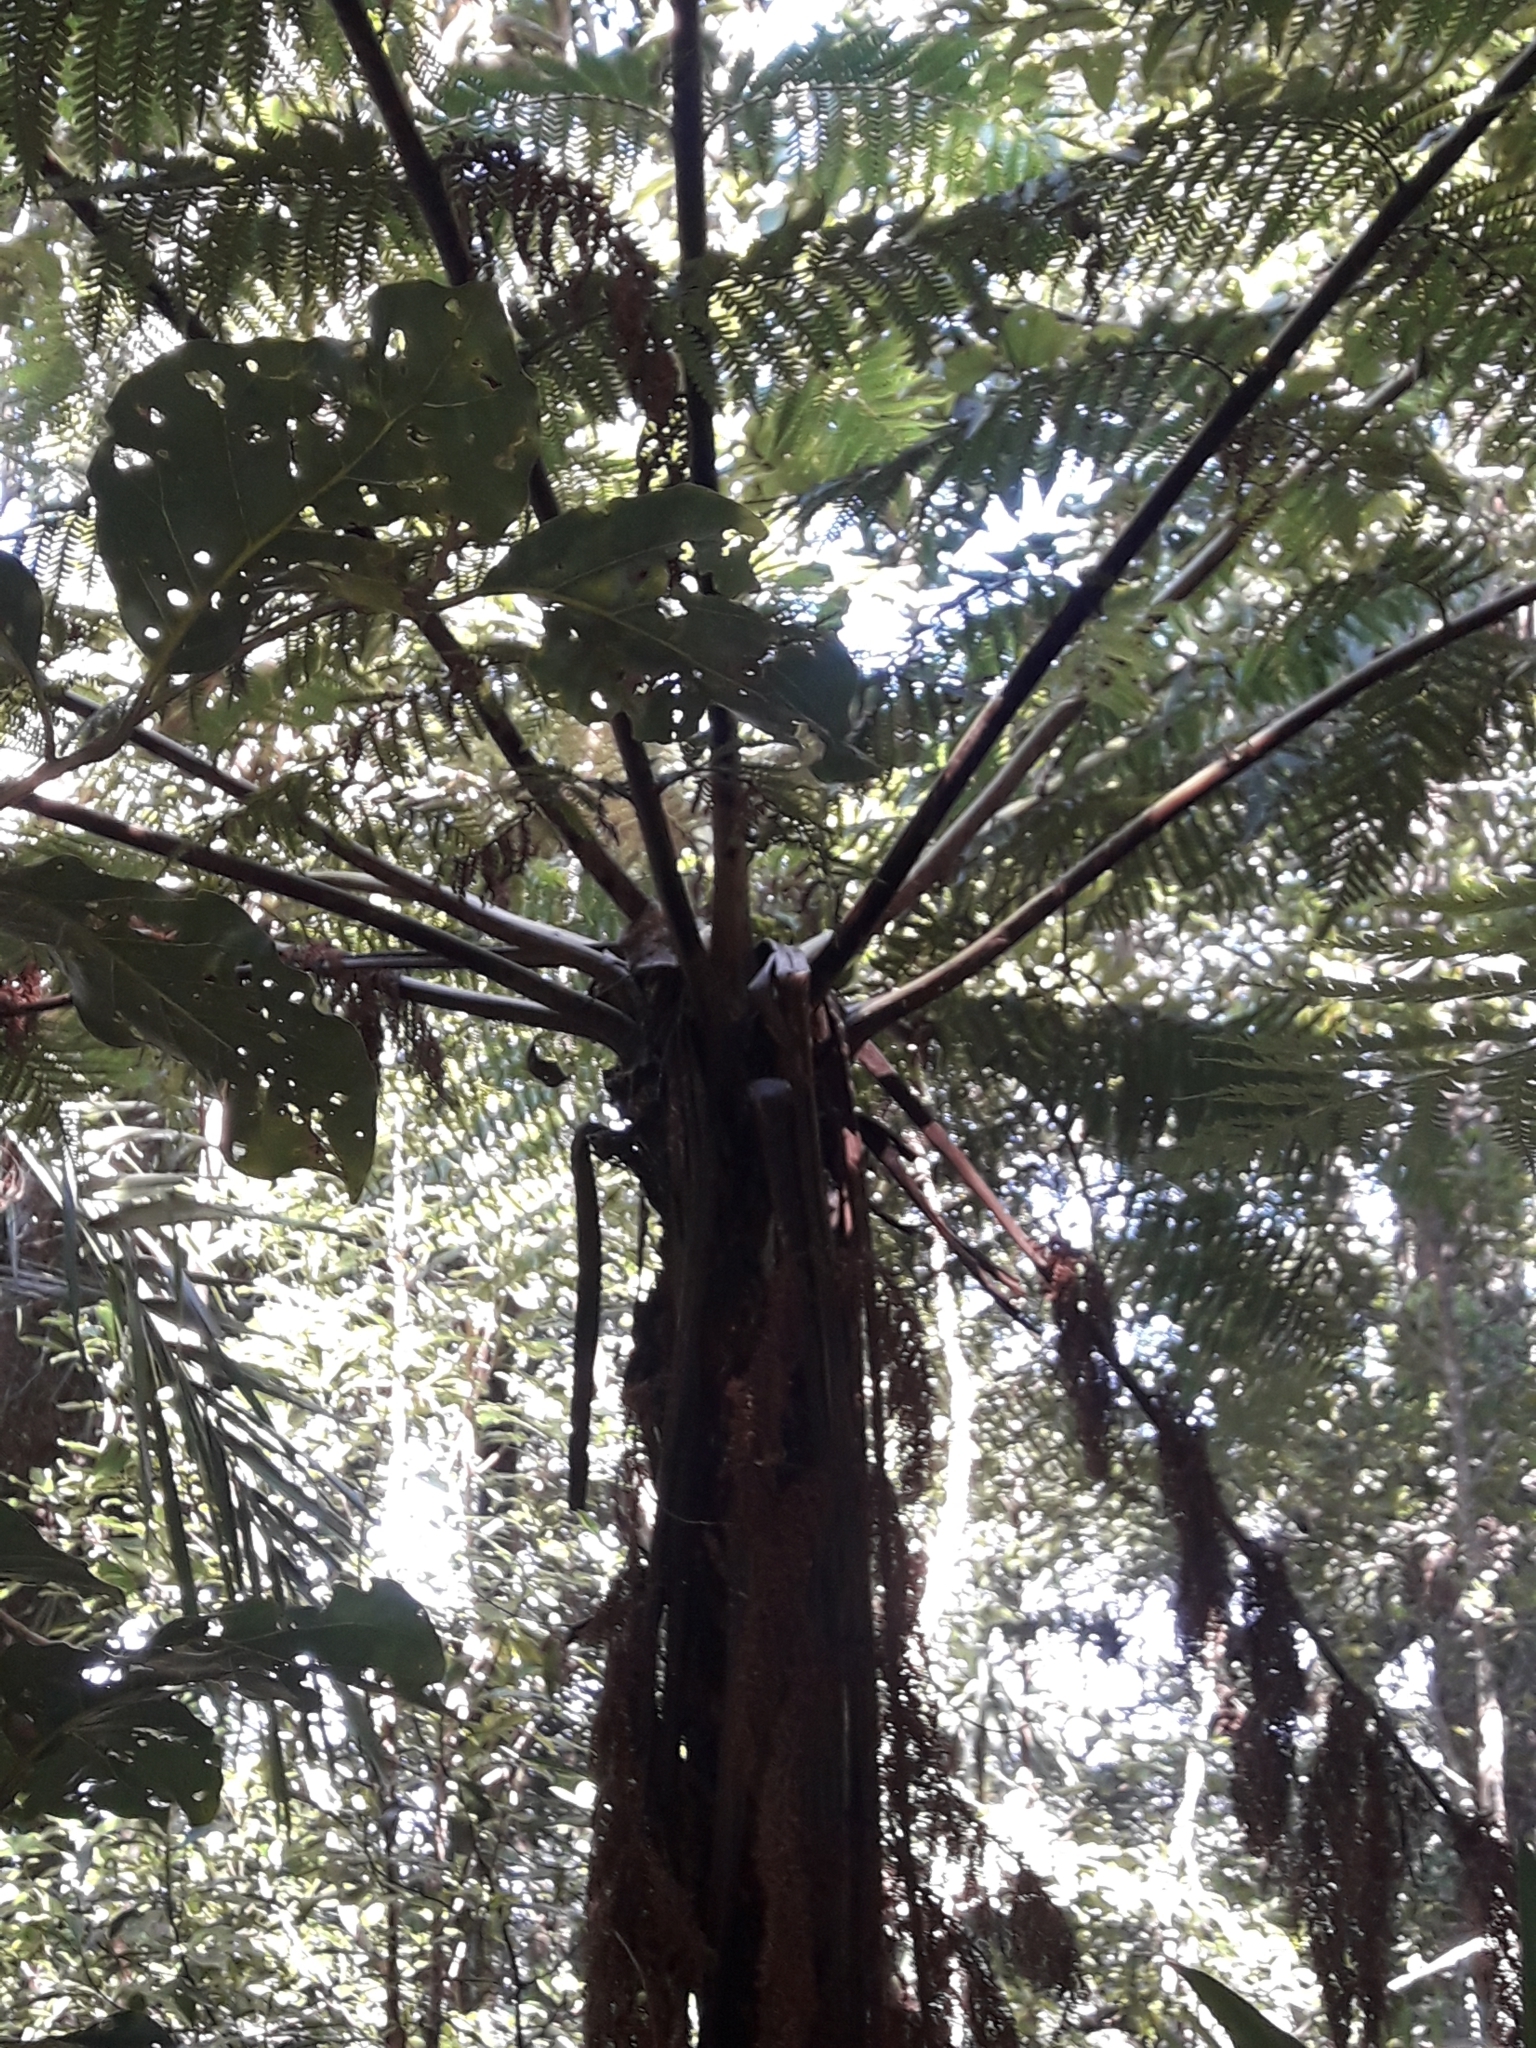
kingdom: Plantae
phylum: Tracheophyta
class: Polypodiopsida
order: Cyatheales
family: Dicksoniaceae
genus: Dicksonia
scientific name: Dicksonia munzingeri
